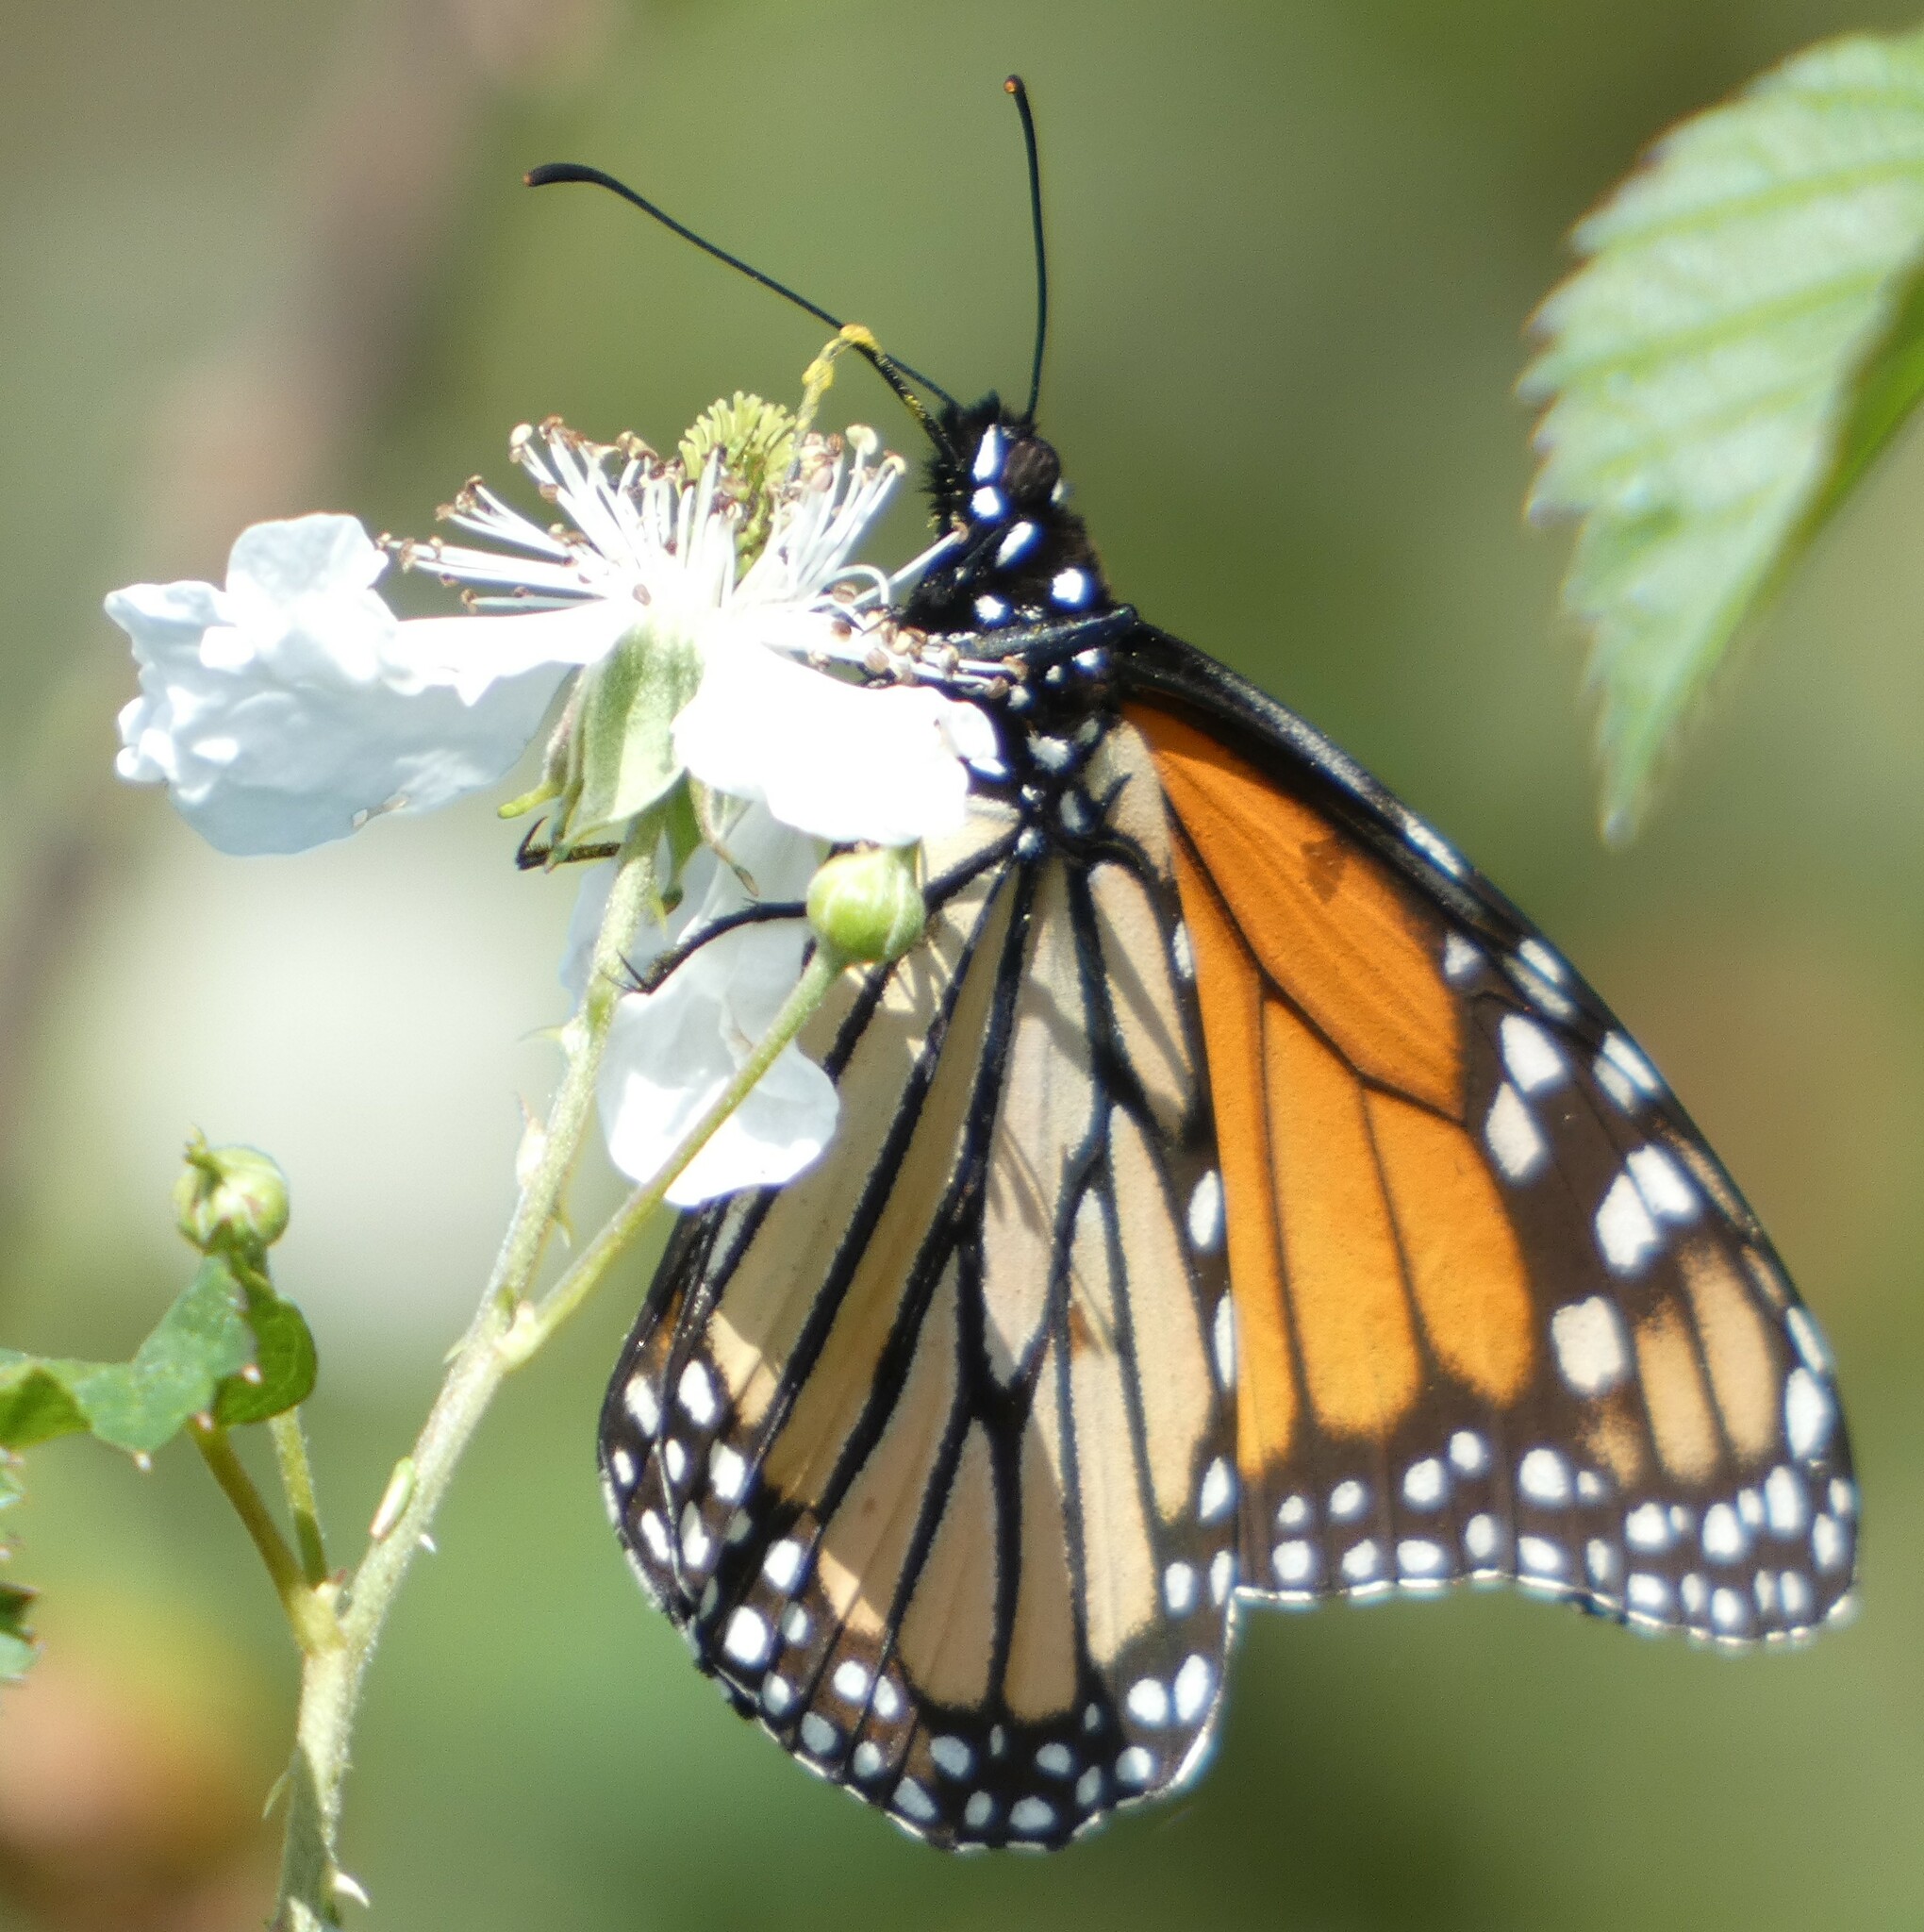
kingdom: Animalia
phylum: Arthropoda
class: Insecta
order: Lepidoptera
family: Nymphalidae
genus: Danaus
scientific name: Danaus plexippus
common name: Monarch
